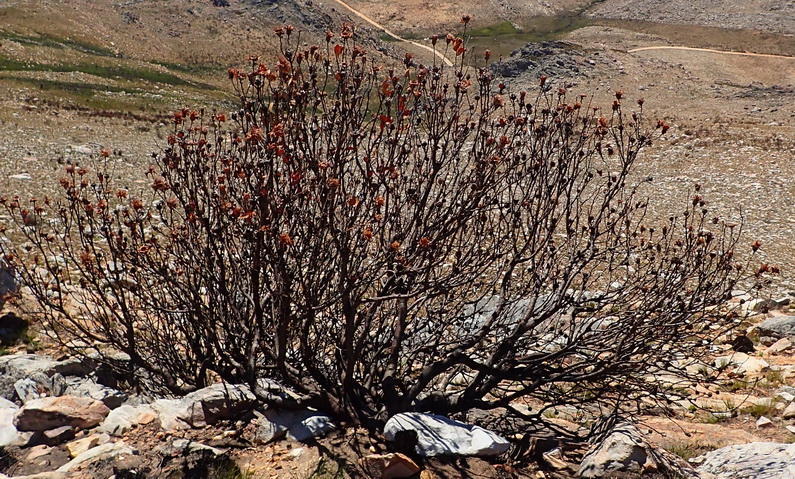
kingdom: Plantae
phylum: Tracheophyta
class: Magnoliopsida
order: Proteales
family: Proteaceae
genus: Protea
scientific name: Protea punctata
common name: Water sugarbush
